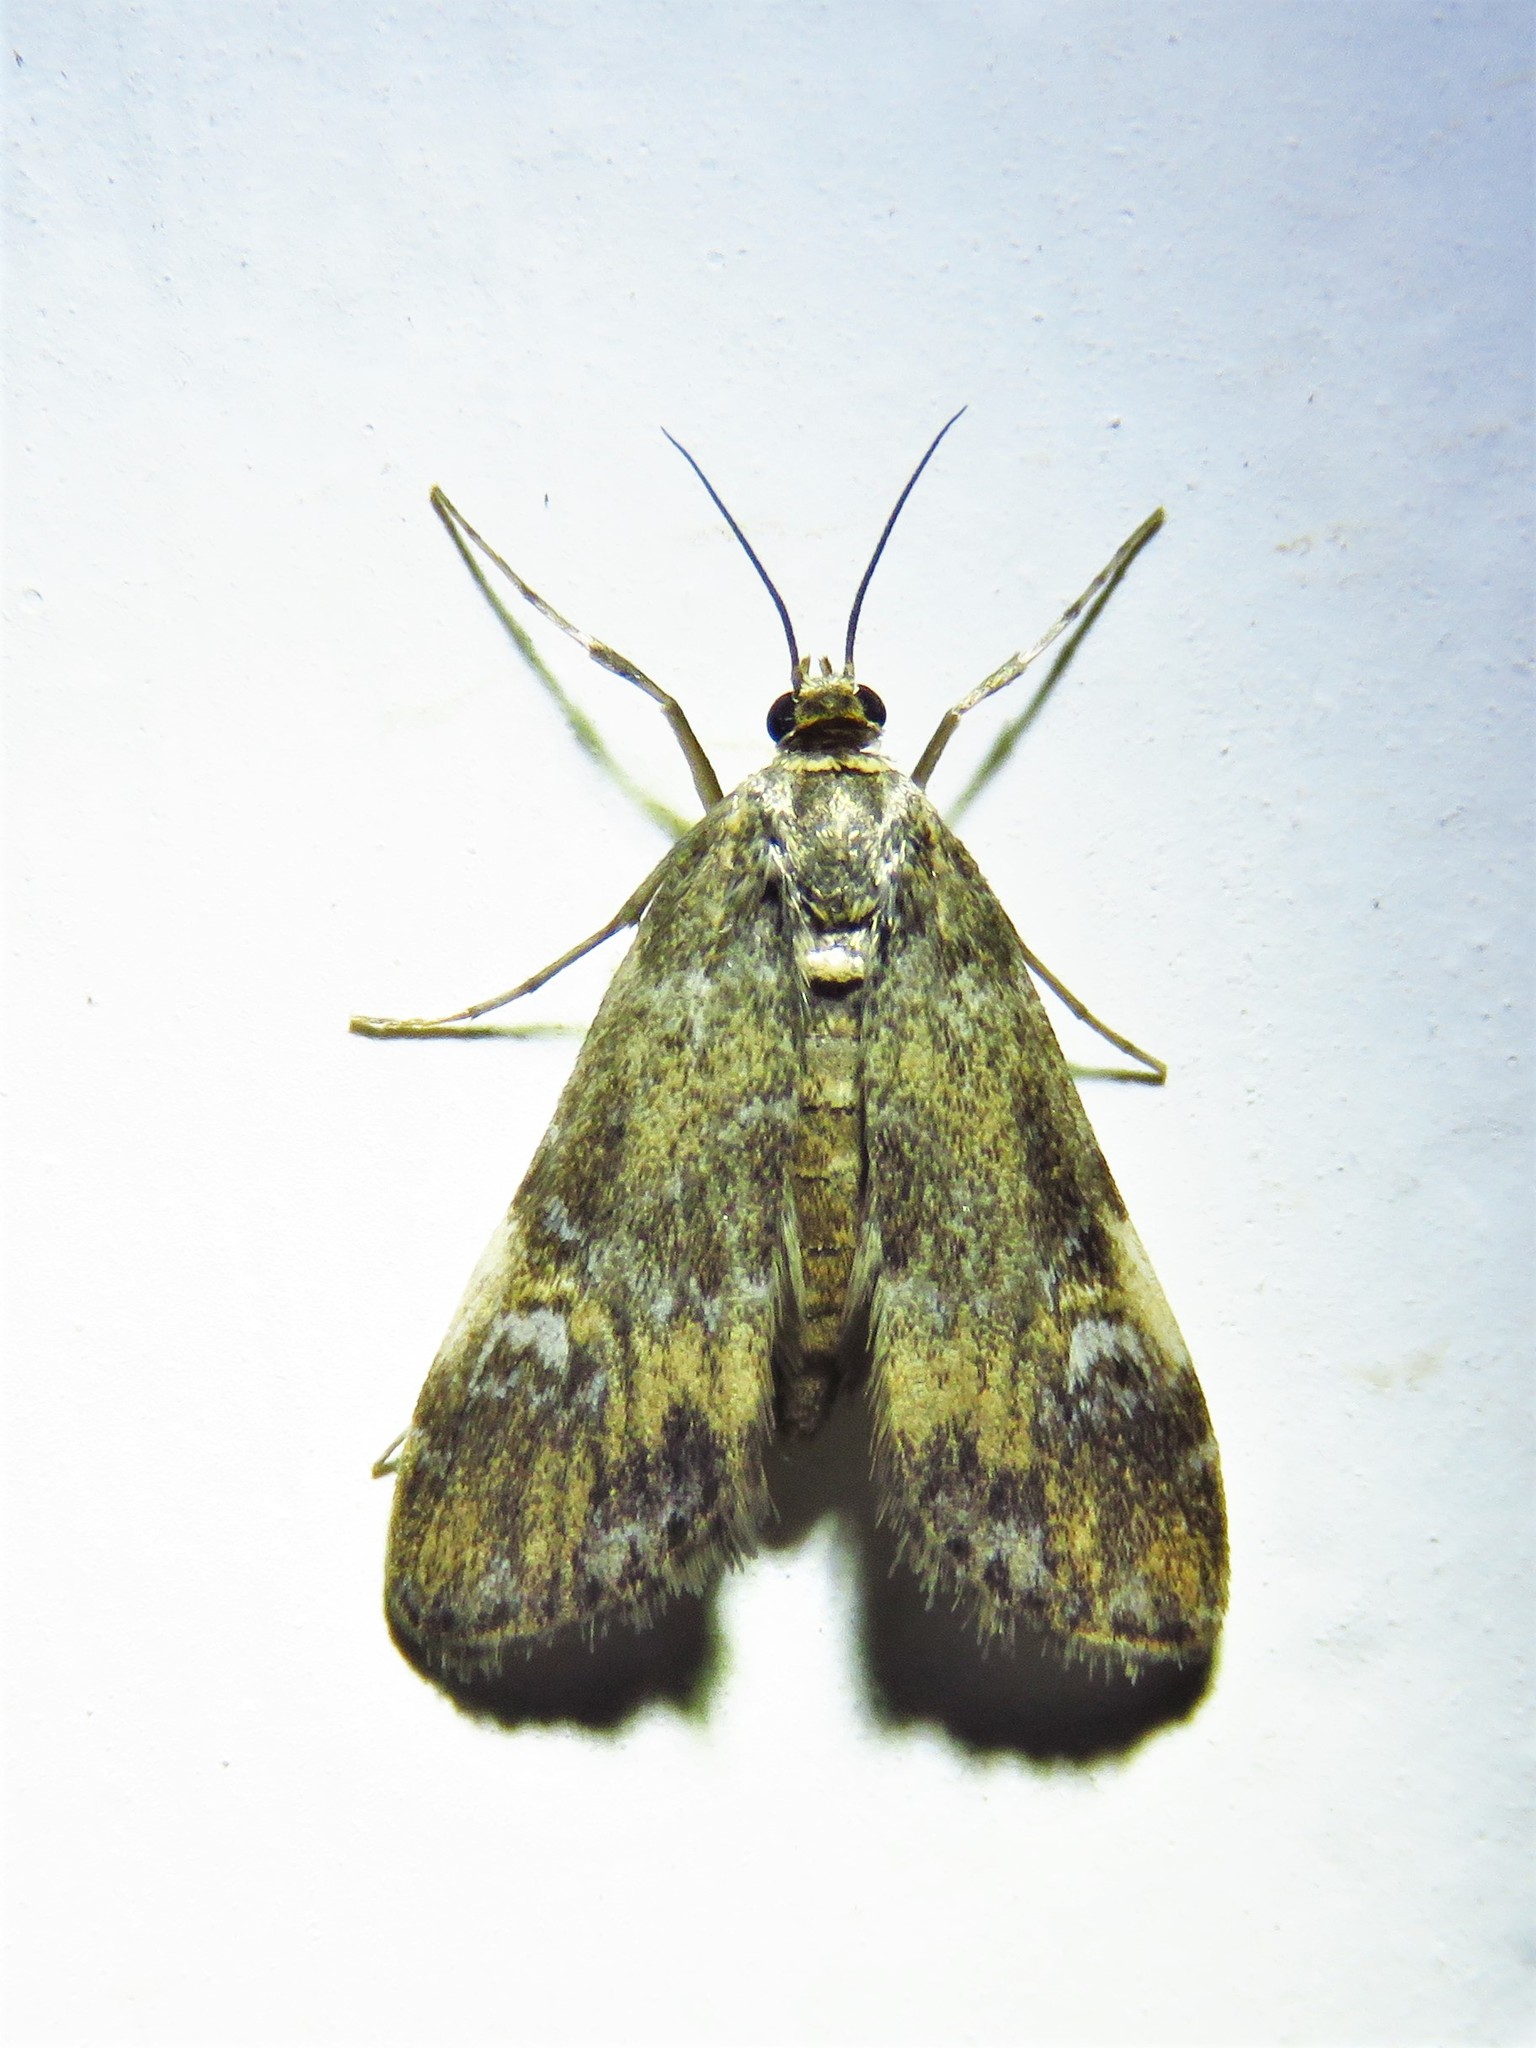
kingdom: Animalia
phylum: Arthropoda
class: Insecta
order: Lepidoptera
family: Crambidae
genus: Elophila
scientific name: Elophila obliteralis
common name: Waterlily leafcutter moth
